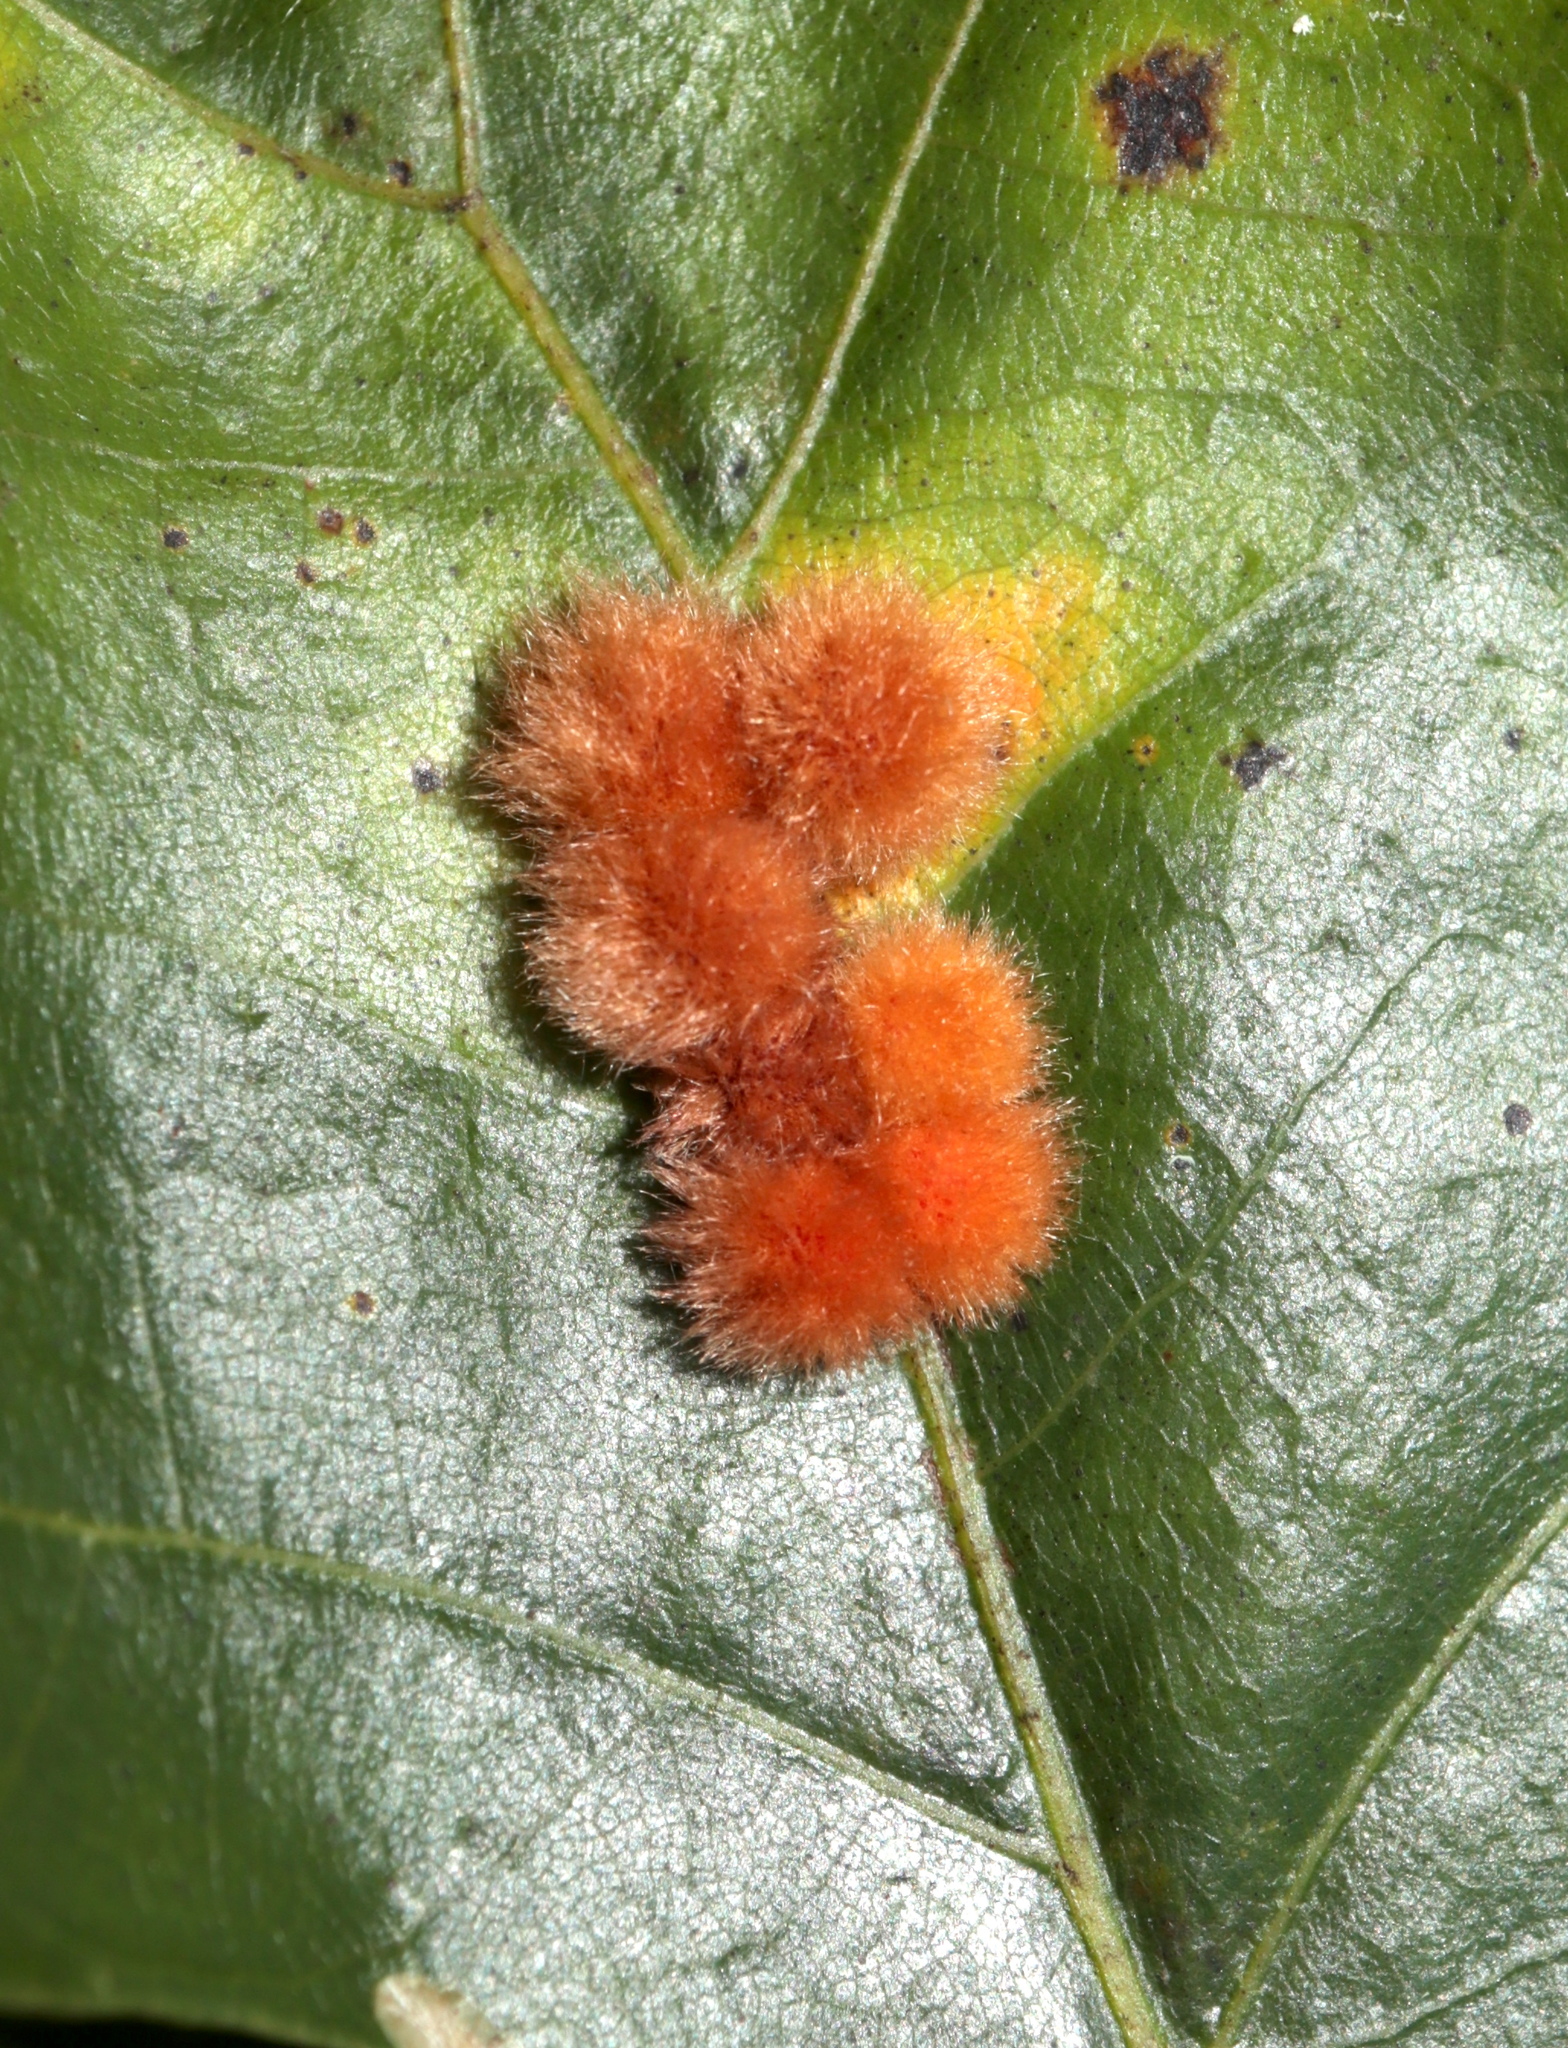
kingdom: Animalia
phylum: Arthropoda
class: Insecta
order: Hymenoptera
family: Cynipidae
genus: Callirhytis
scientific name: Callirhytis
